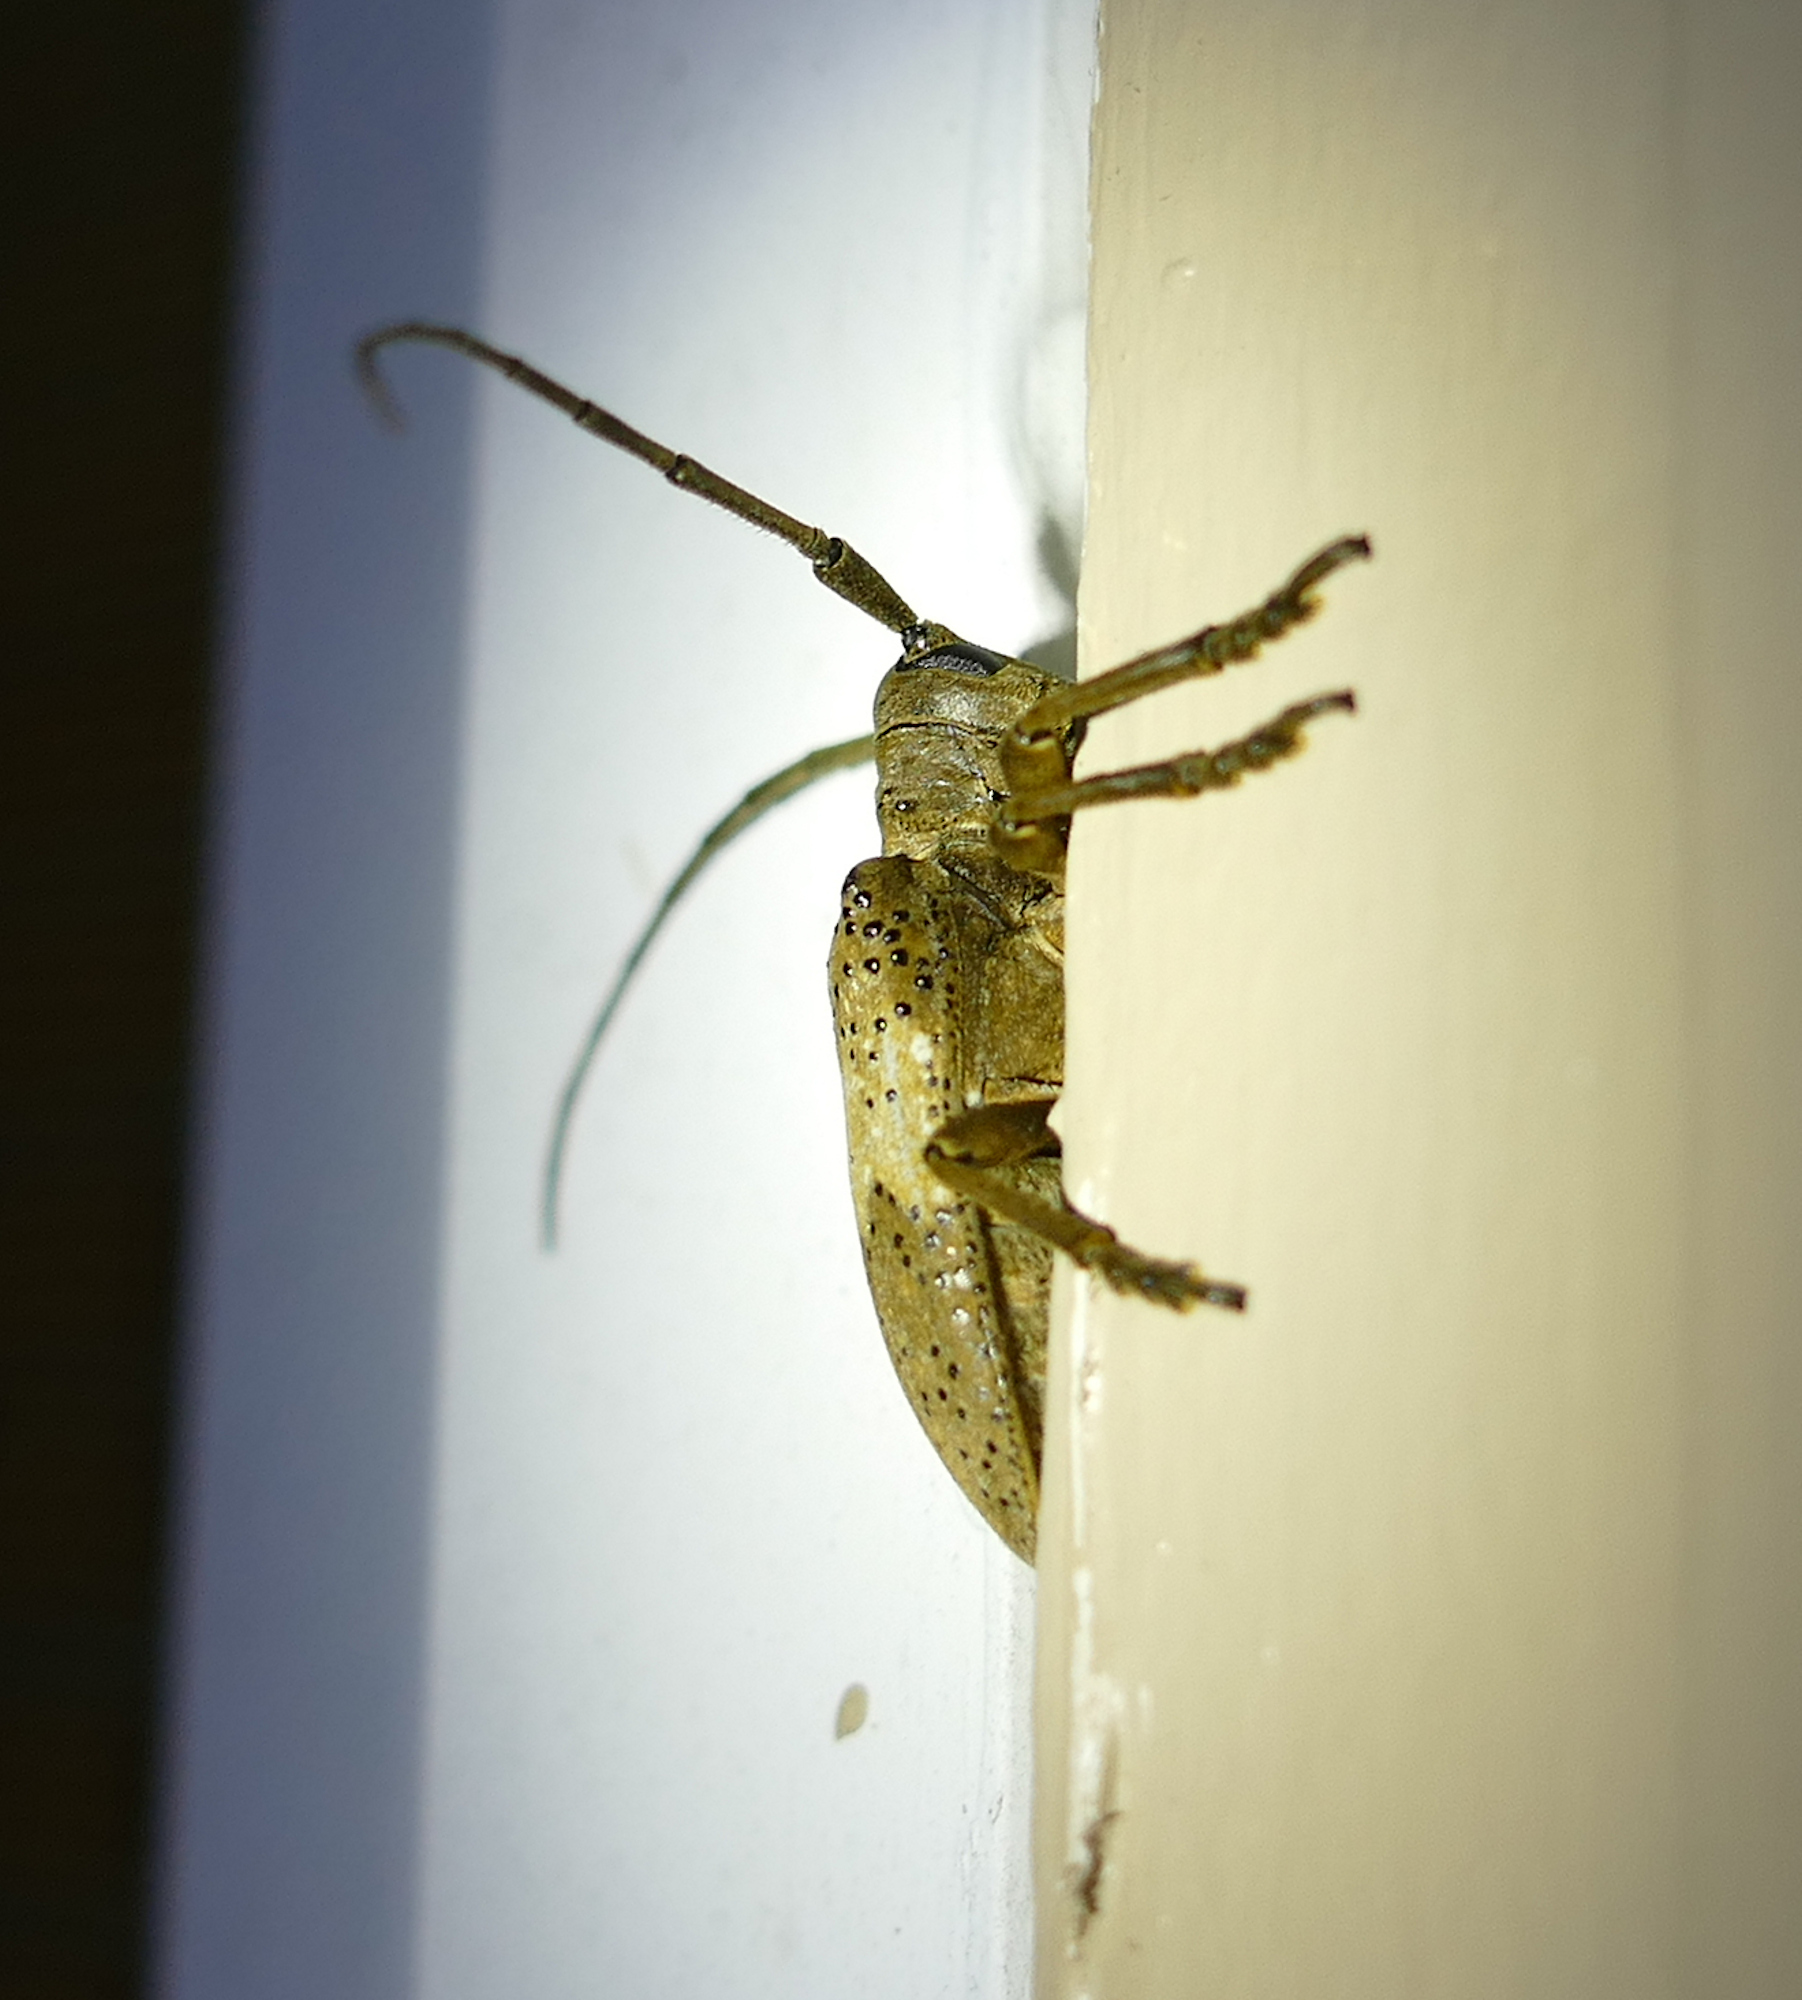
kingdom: Animalia
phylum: Arthropoda
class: Insecta
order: Coleoptera
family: Cerambycidae
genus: Oncideres
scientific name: Oncideres pustulata
